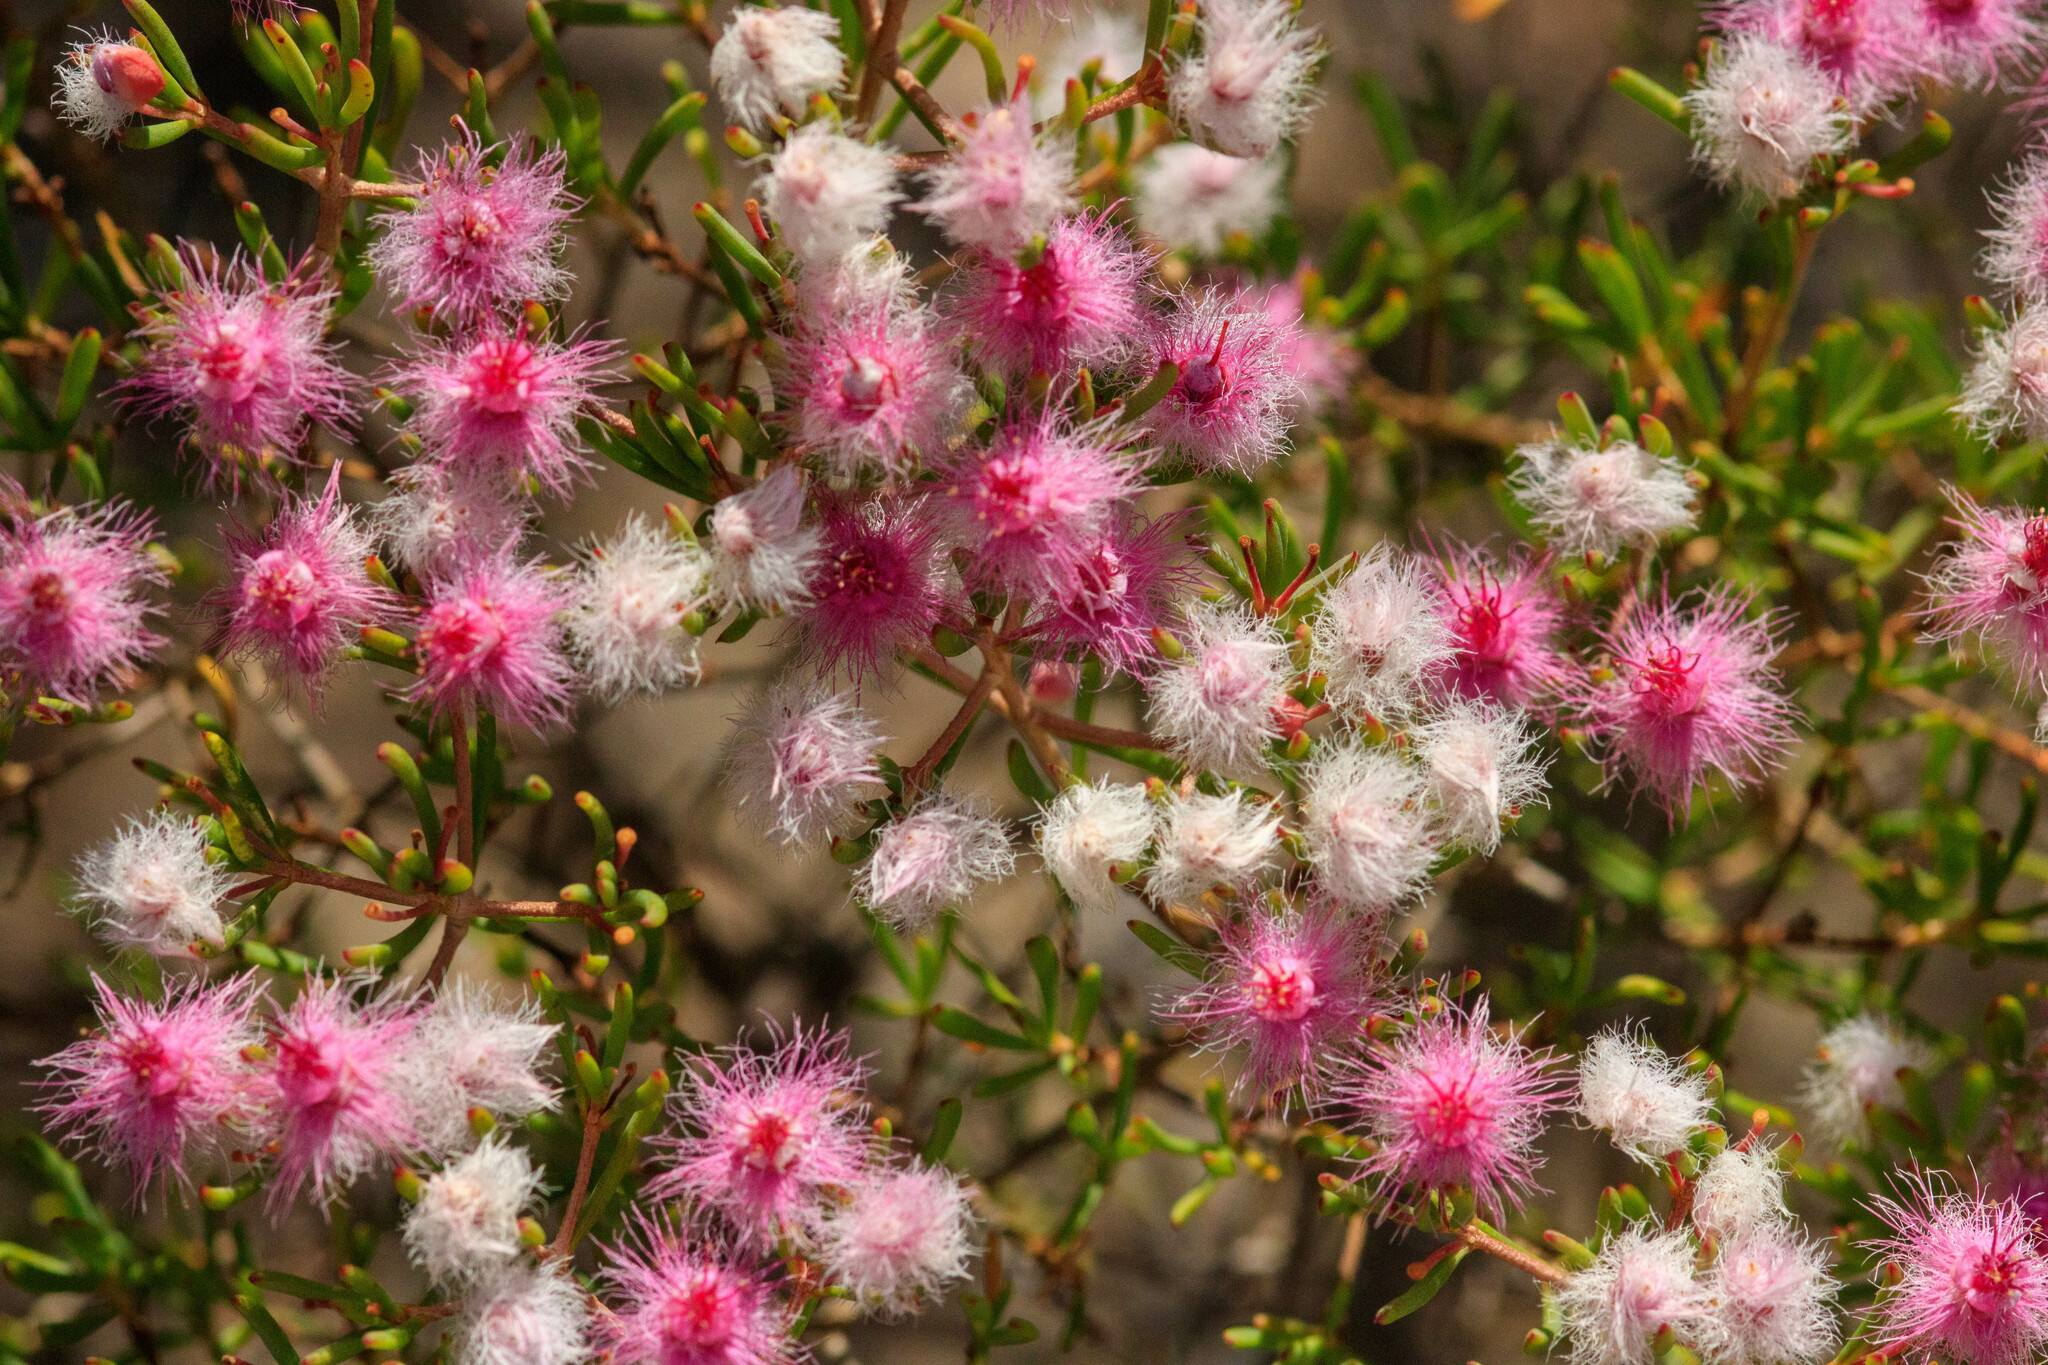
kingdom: Plantae
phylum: Tracheophyta
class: Magnoliopsida
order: Myrtales
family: Myrtaceae
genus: Verticordia
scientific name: Verticordia monadelpha
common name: Woolly feather-flower
